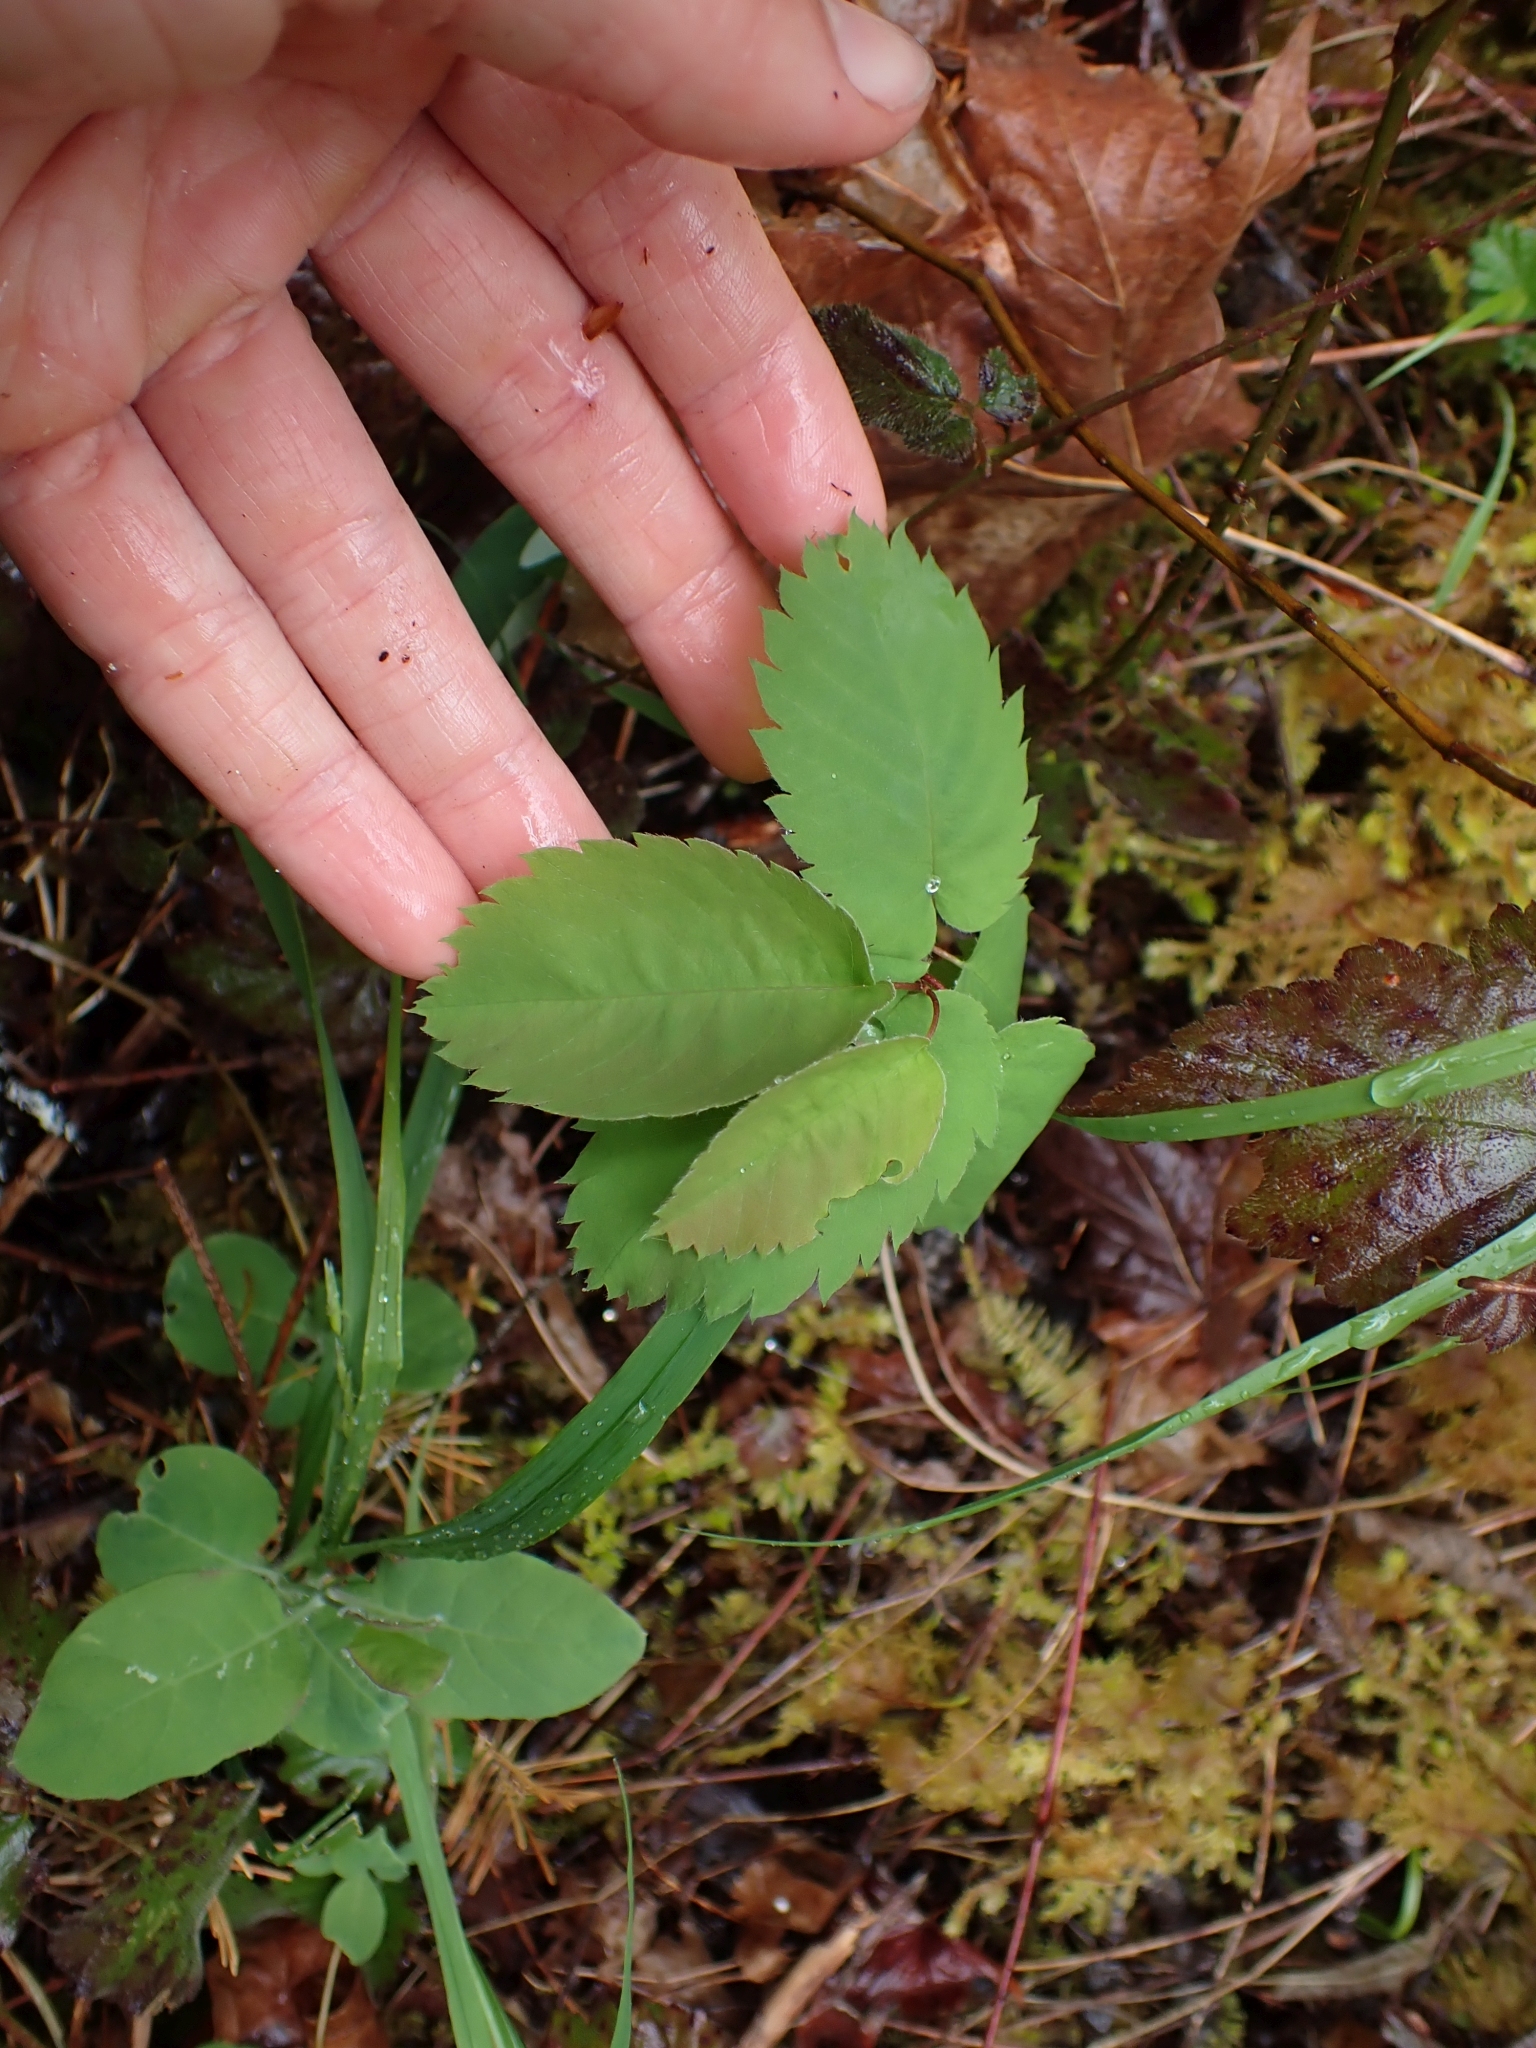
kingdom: Plantae
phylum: Tracheophyta
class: Magnoliopsida
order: Rosales
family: Rosaceae
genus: Amelanchier
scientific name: Amelanchier alnifolia
